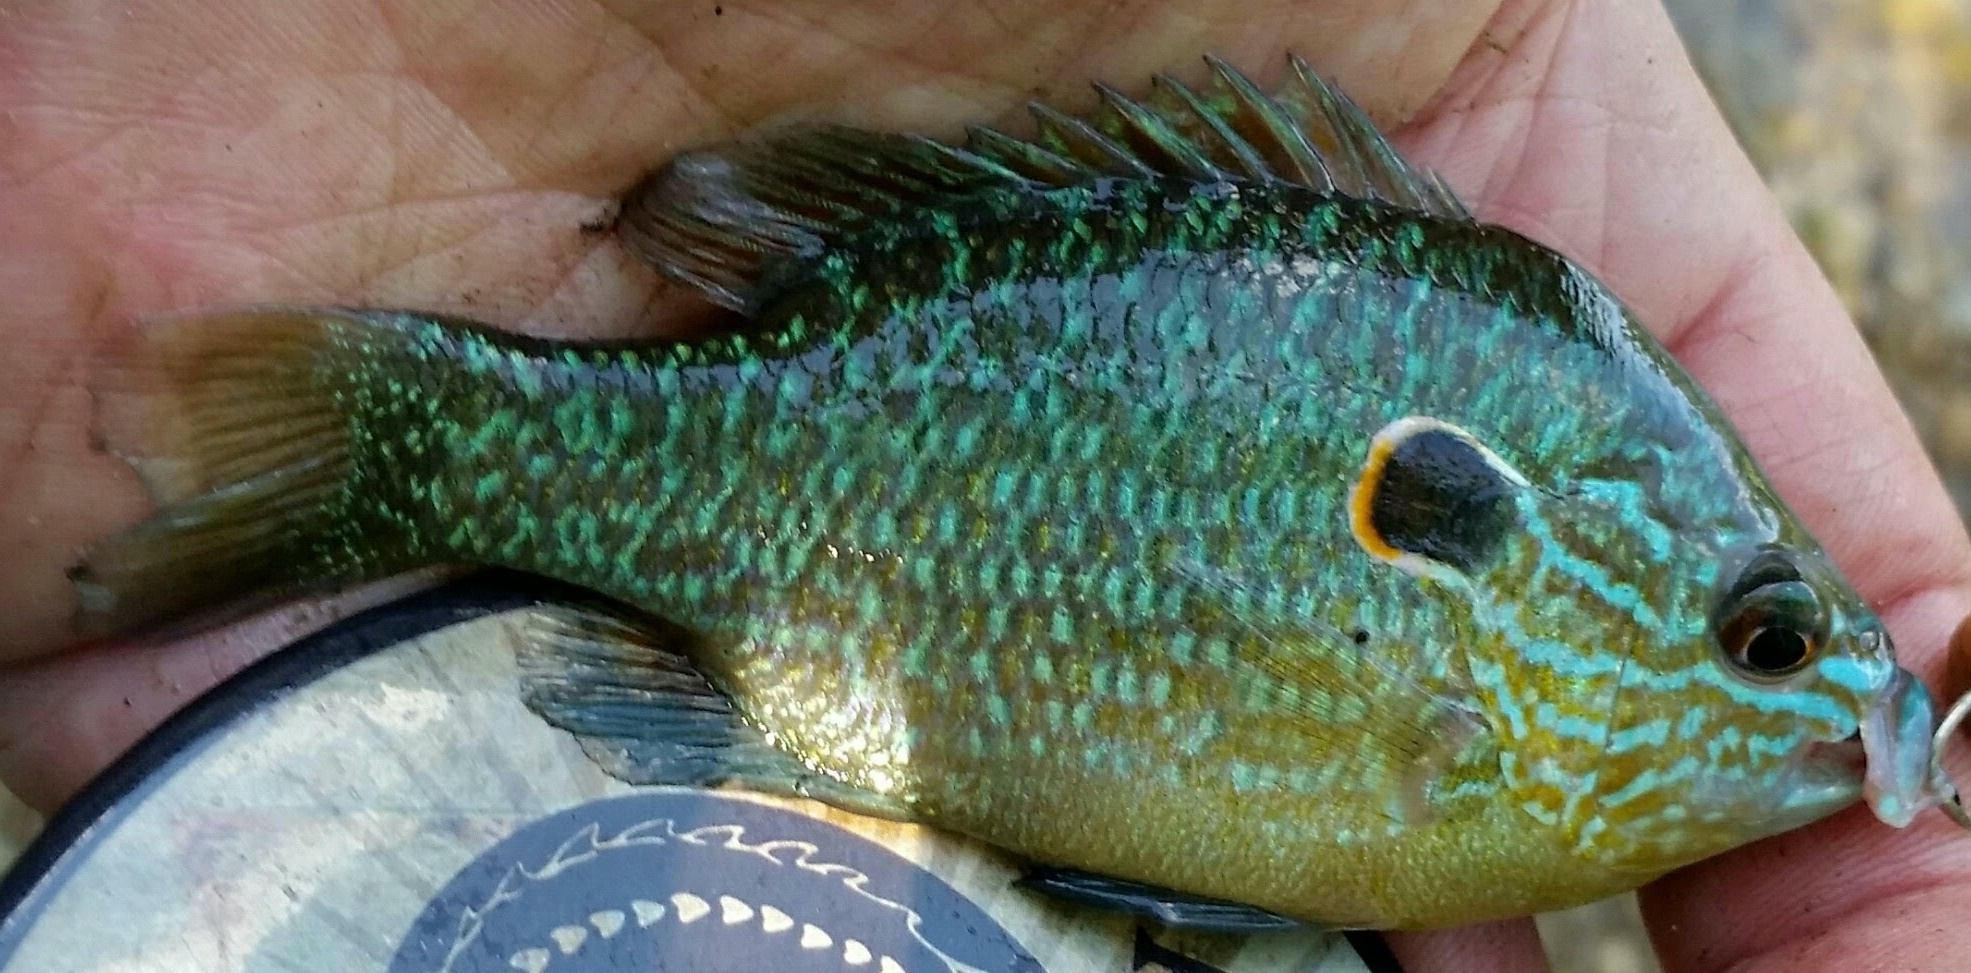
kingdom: Animalia
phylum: Chordata
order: Perciformes
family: Centrarchidae
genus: Lepomis
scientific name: Lepomis peltastes
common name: Northern sunfish
